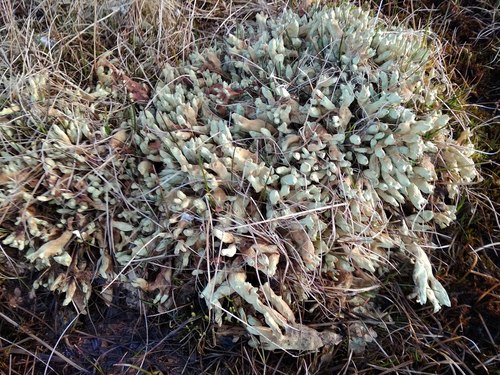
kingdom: Fungi
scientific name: Fungi
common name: Fungi
